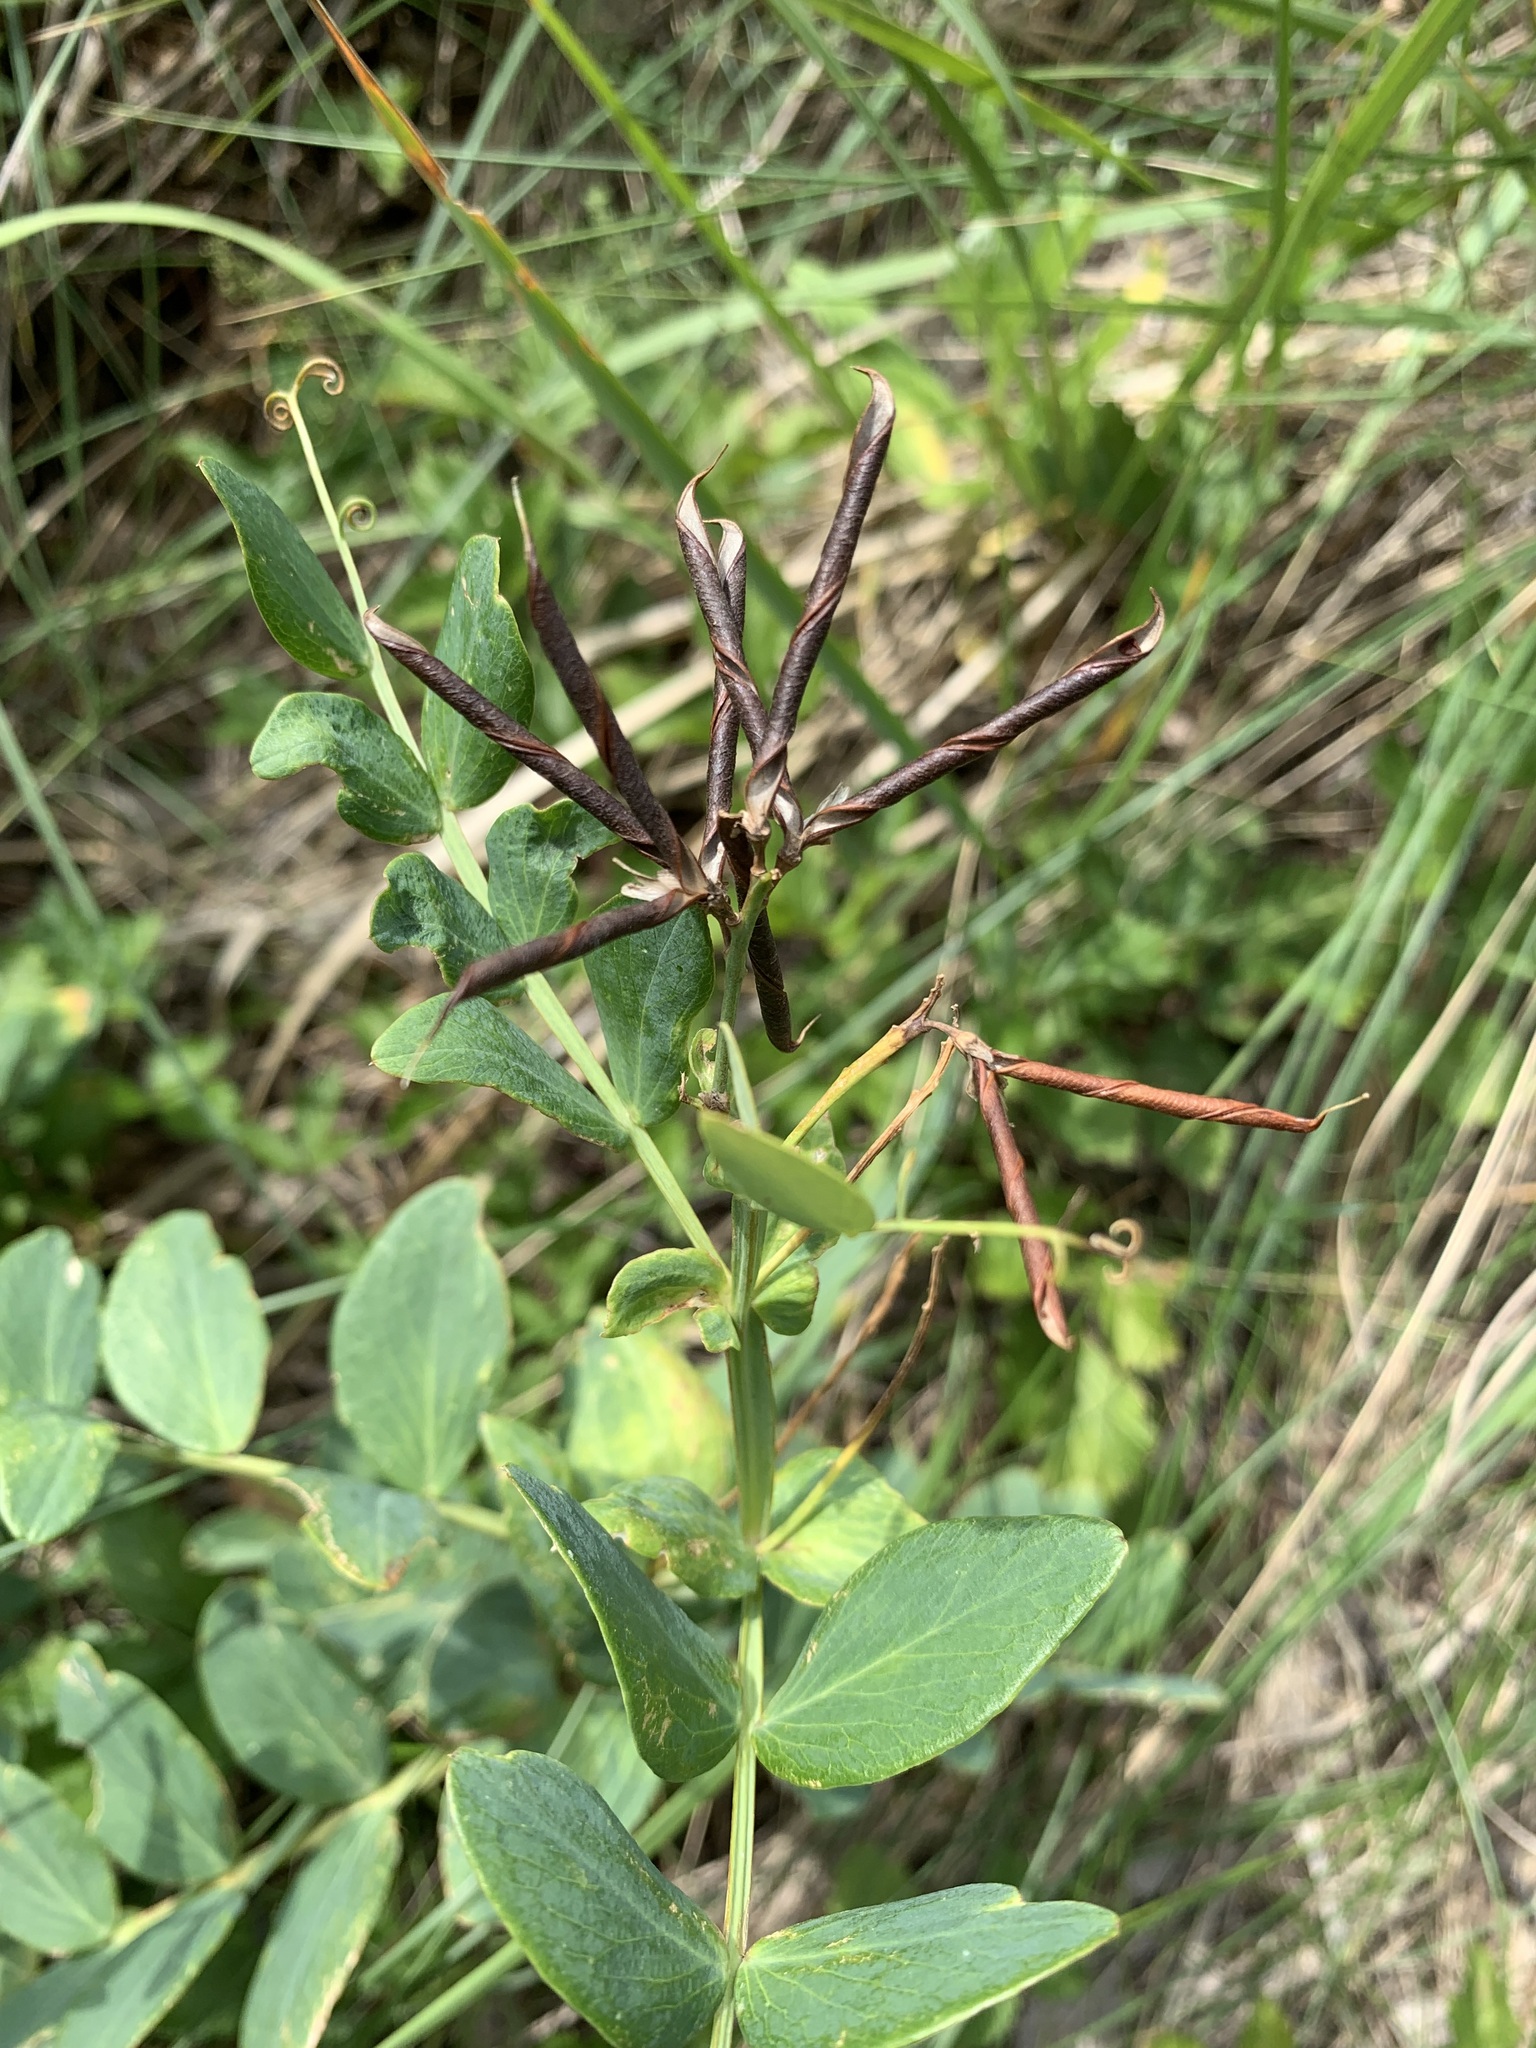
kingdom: Plantae
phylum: Tracheophyta
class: Magnoliopsida
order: Fabales
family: Fabaceae
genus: Lathyrus
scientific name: Lathyrus pisiformis
